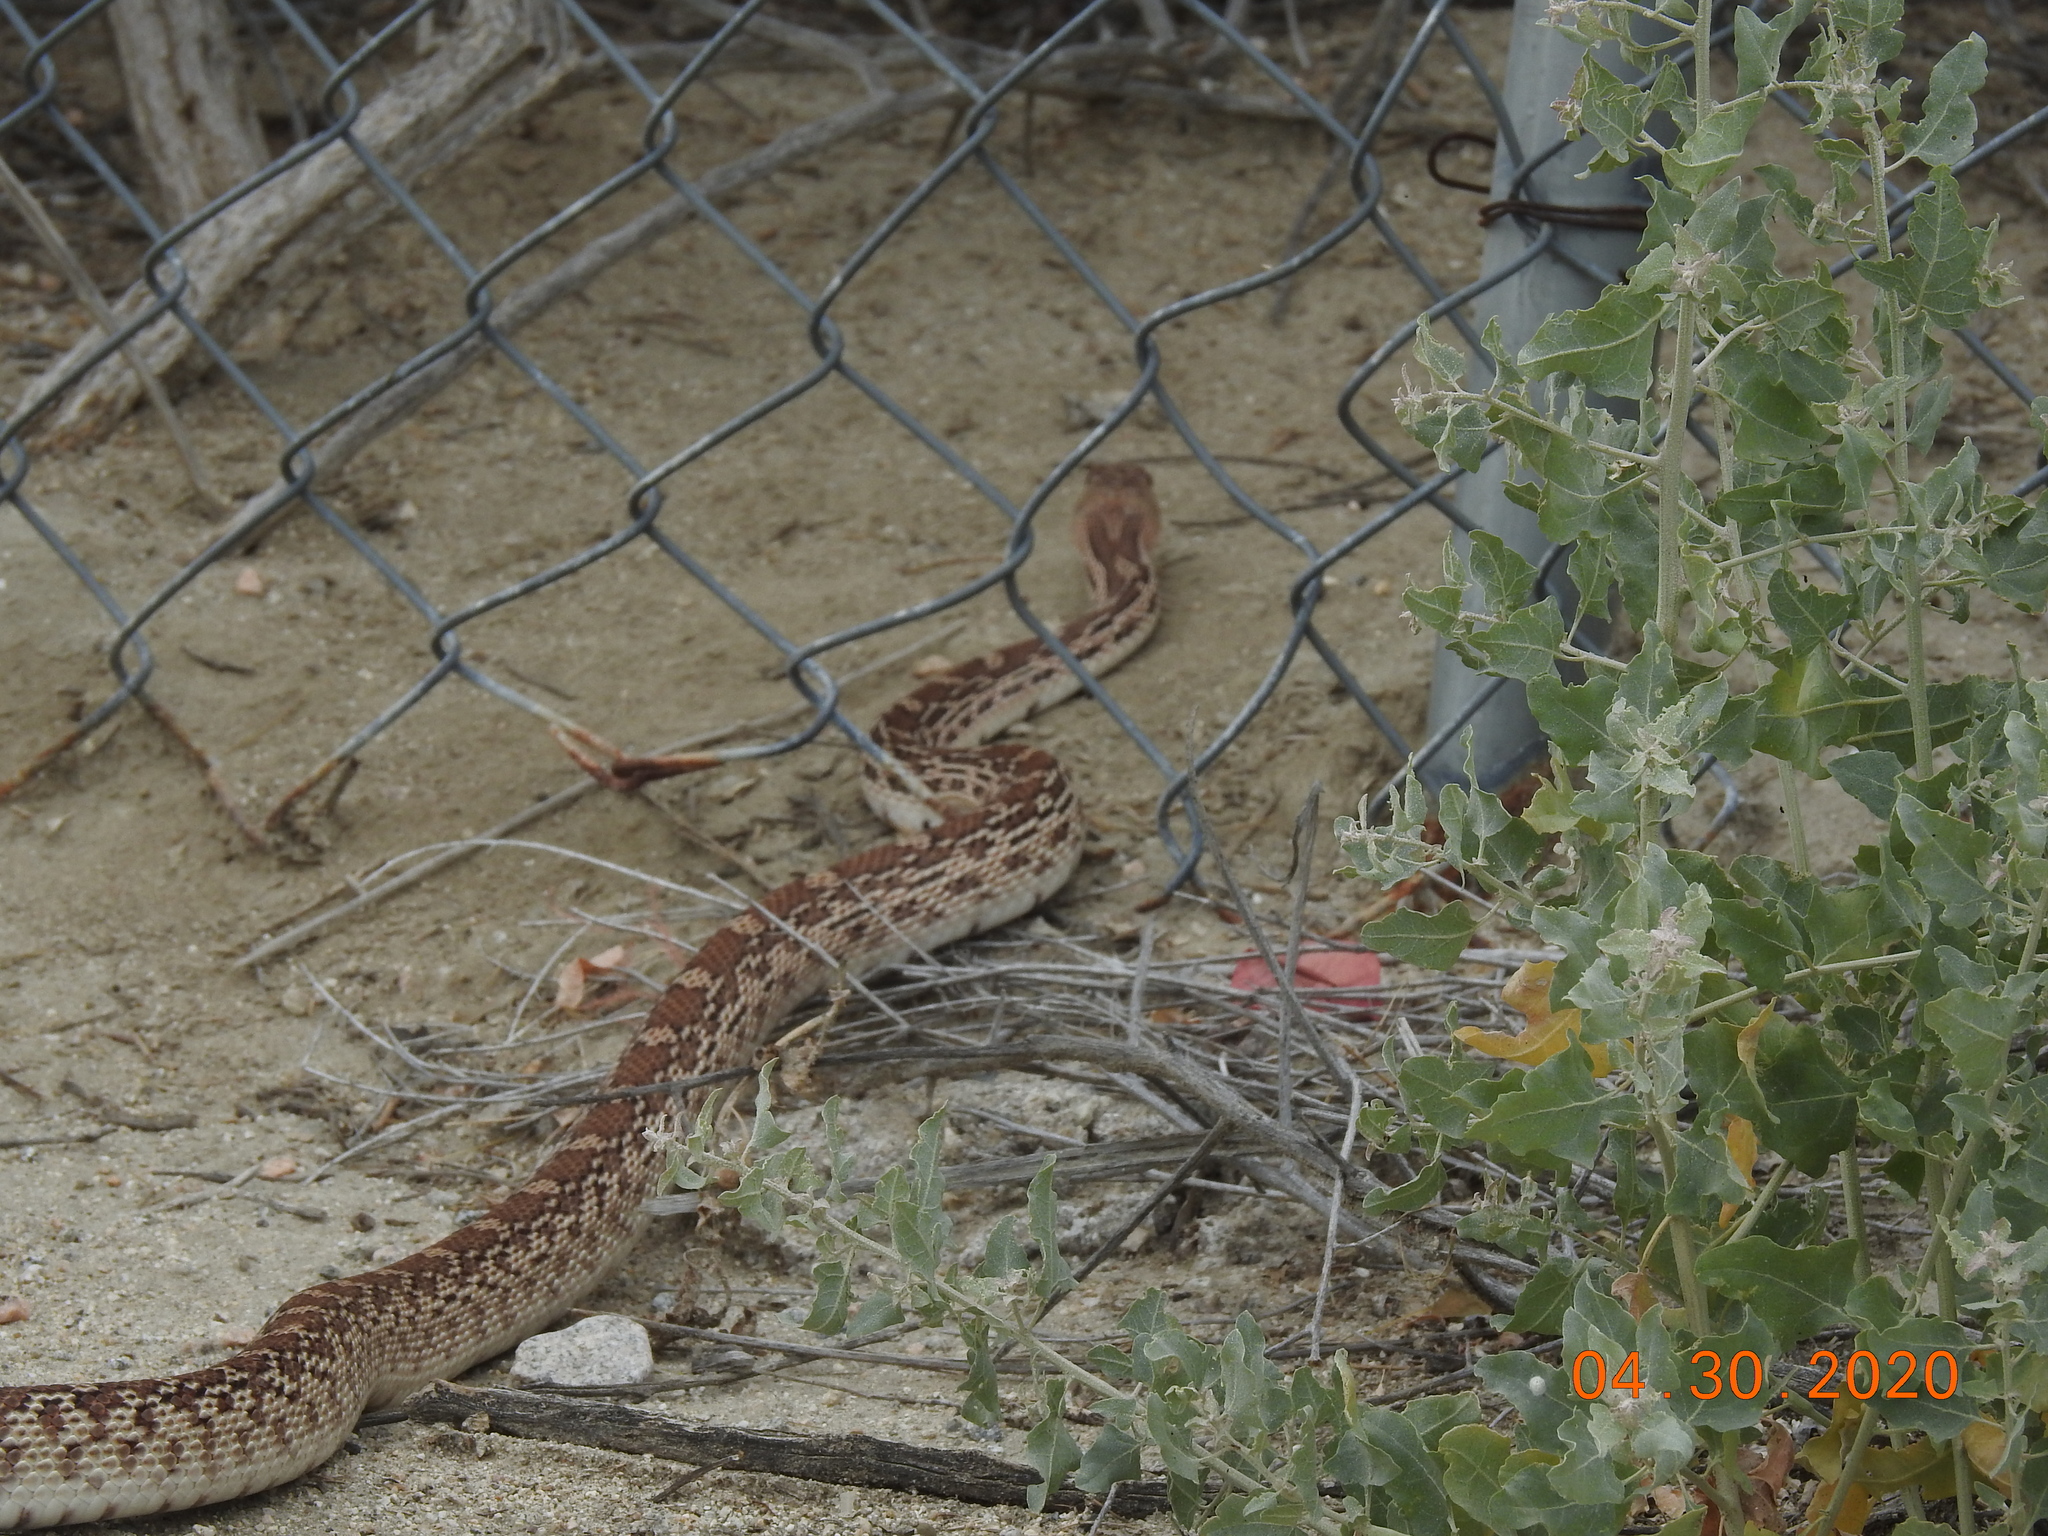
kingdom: Animalia
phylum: Chordata
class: Squamata
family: Colubridae
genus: Pituophis
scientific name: Pituophis catenifer
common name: Gopher snake
